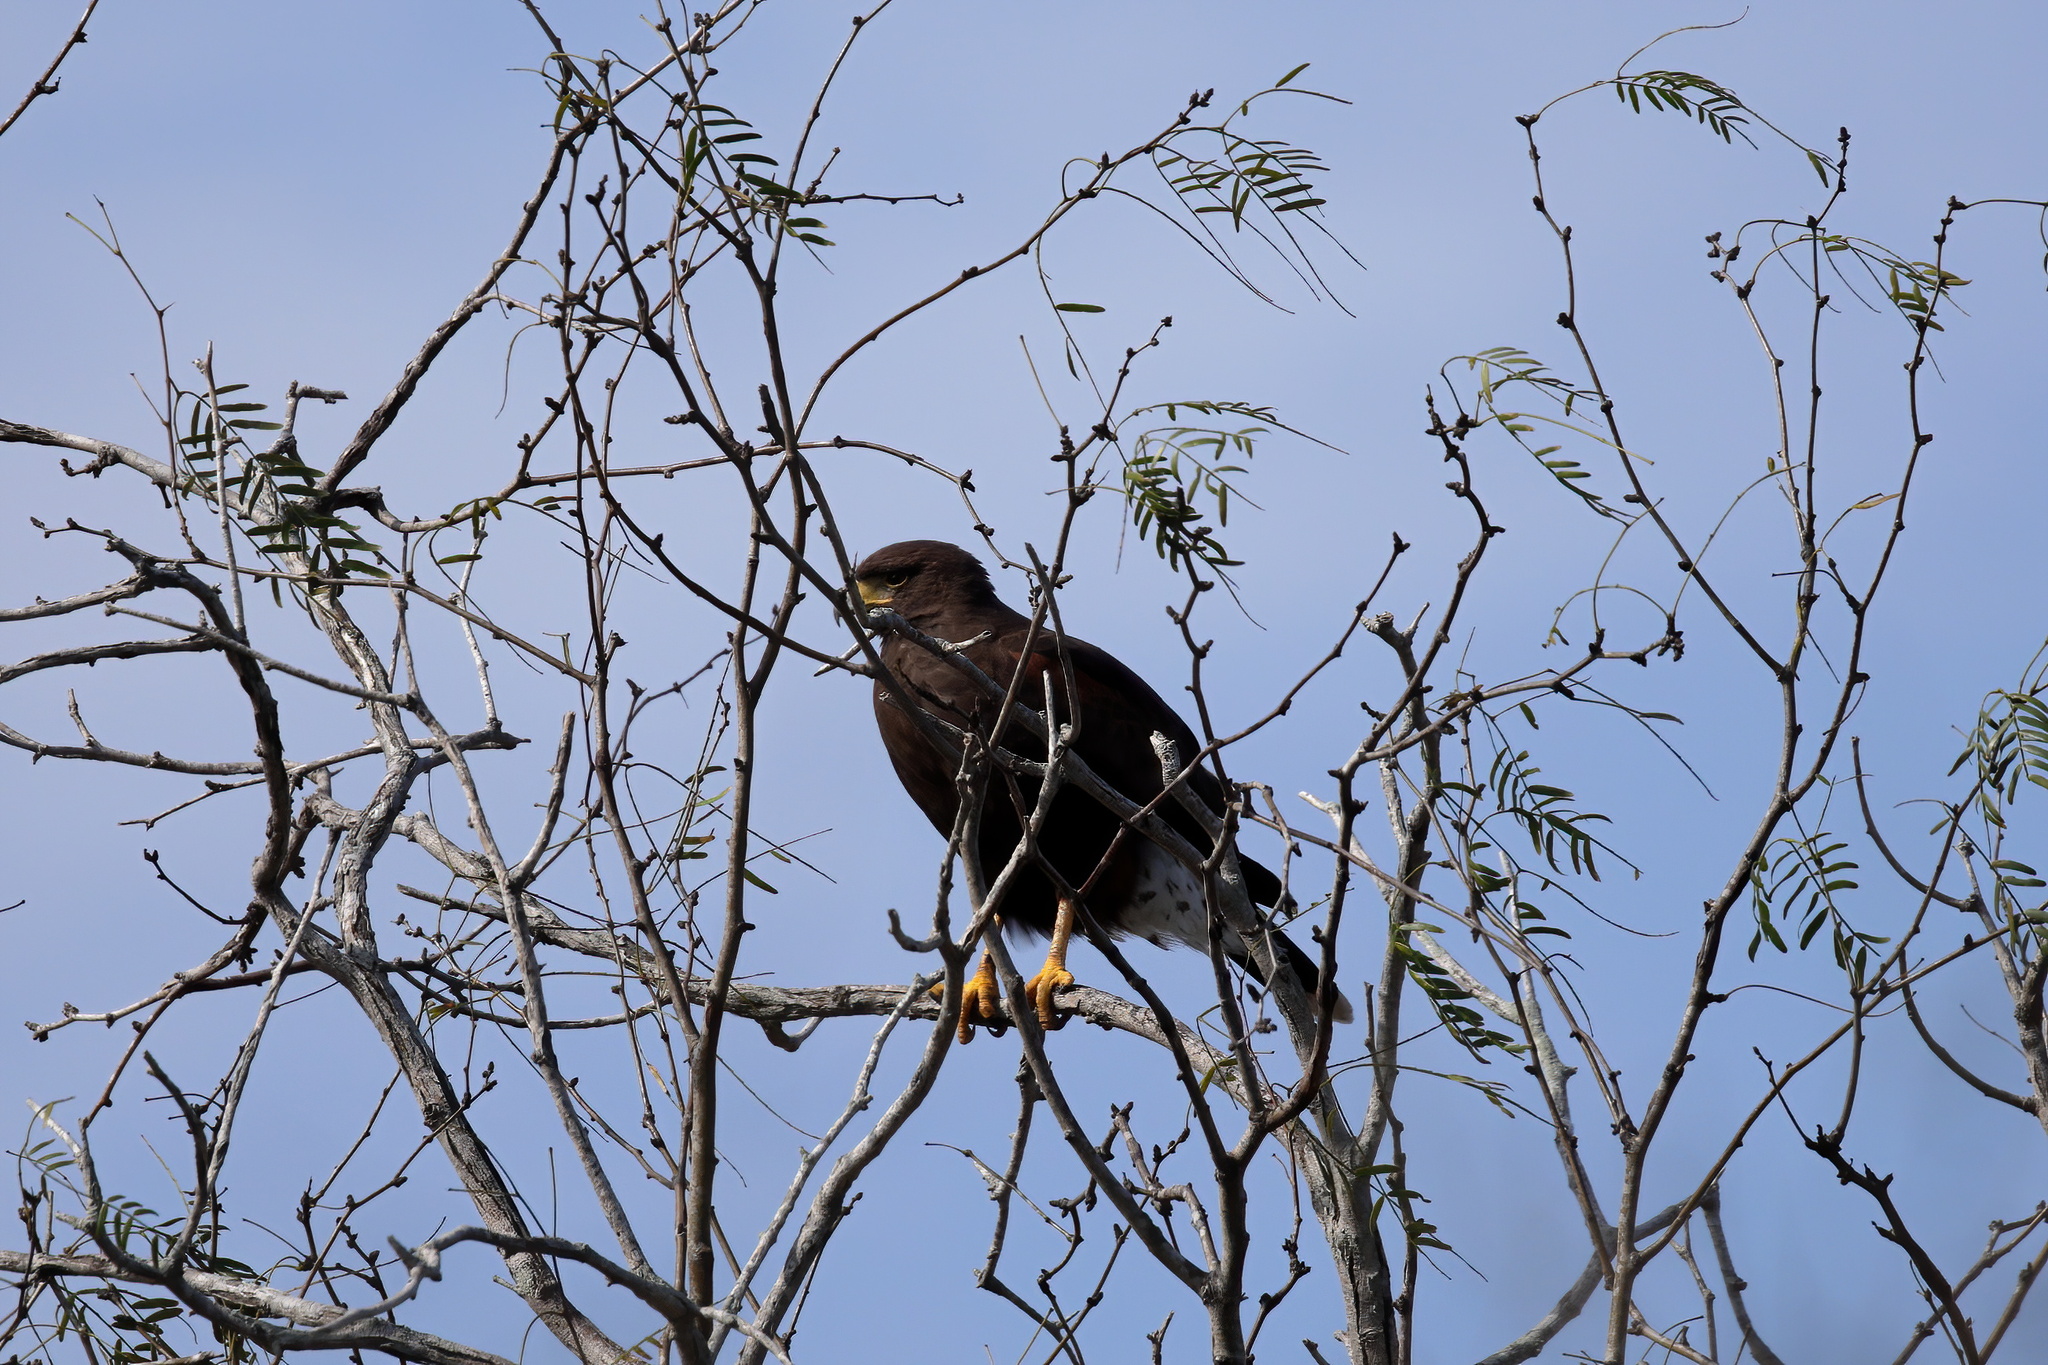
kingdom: Animalia
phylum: Chordata
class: Aves
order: Accipitriformes
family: Accipitridae
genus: Parabuteo
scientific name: Parabuteo unicinctus
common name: Harris's hawk
